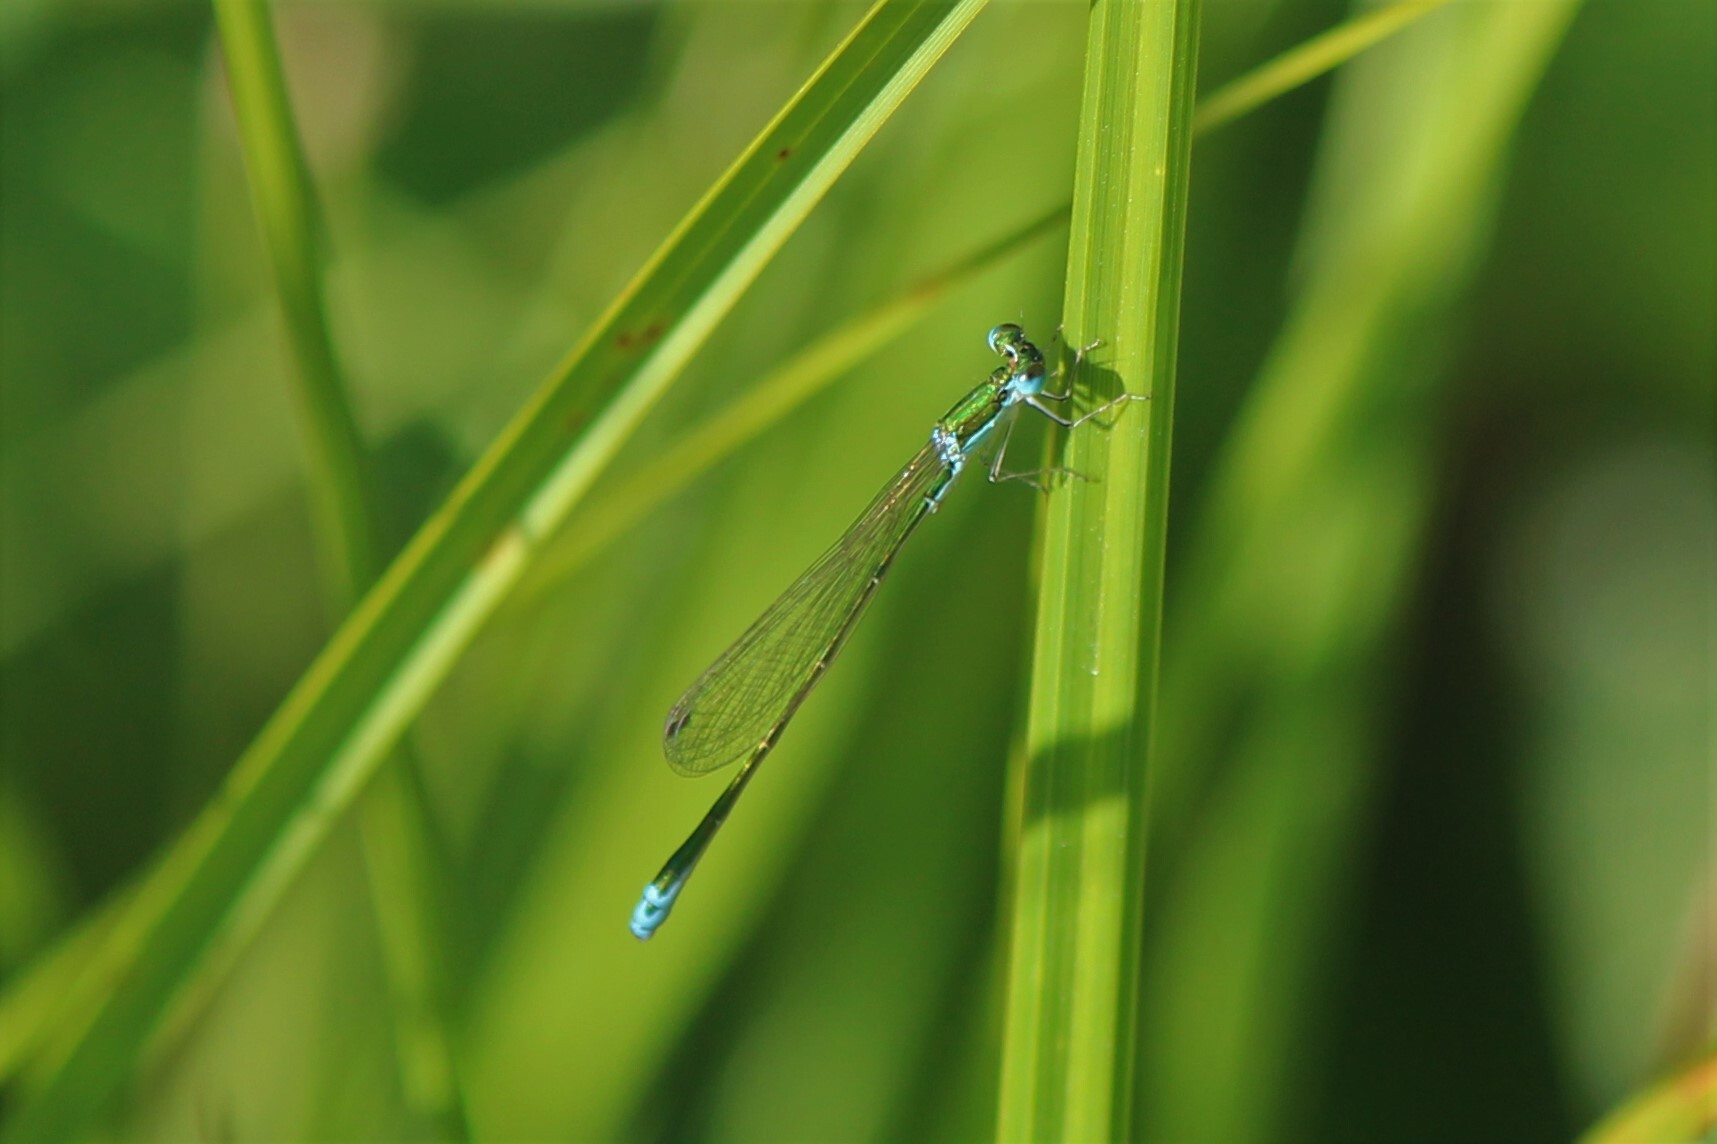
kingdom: Animalia
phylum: Arthropoda
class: Insecta
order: Odonata
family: Coenagrionidae
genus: Nehalennia
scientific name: Nehalennia irene
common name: Sedge sprite
